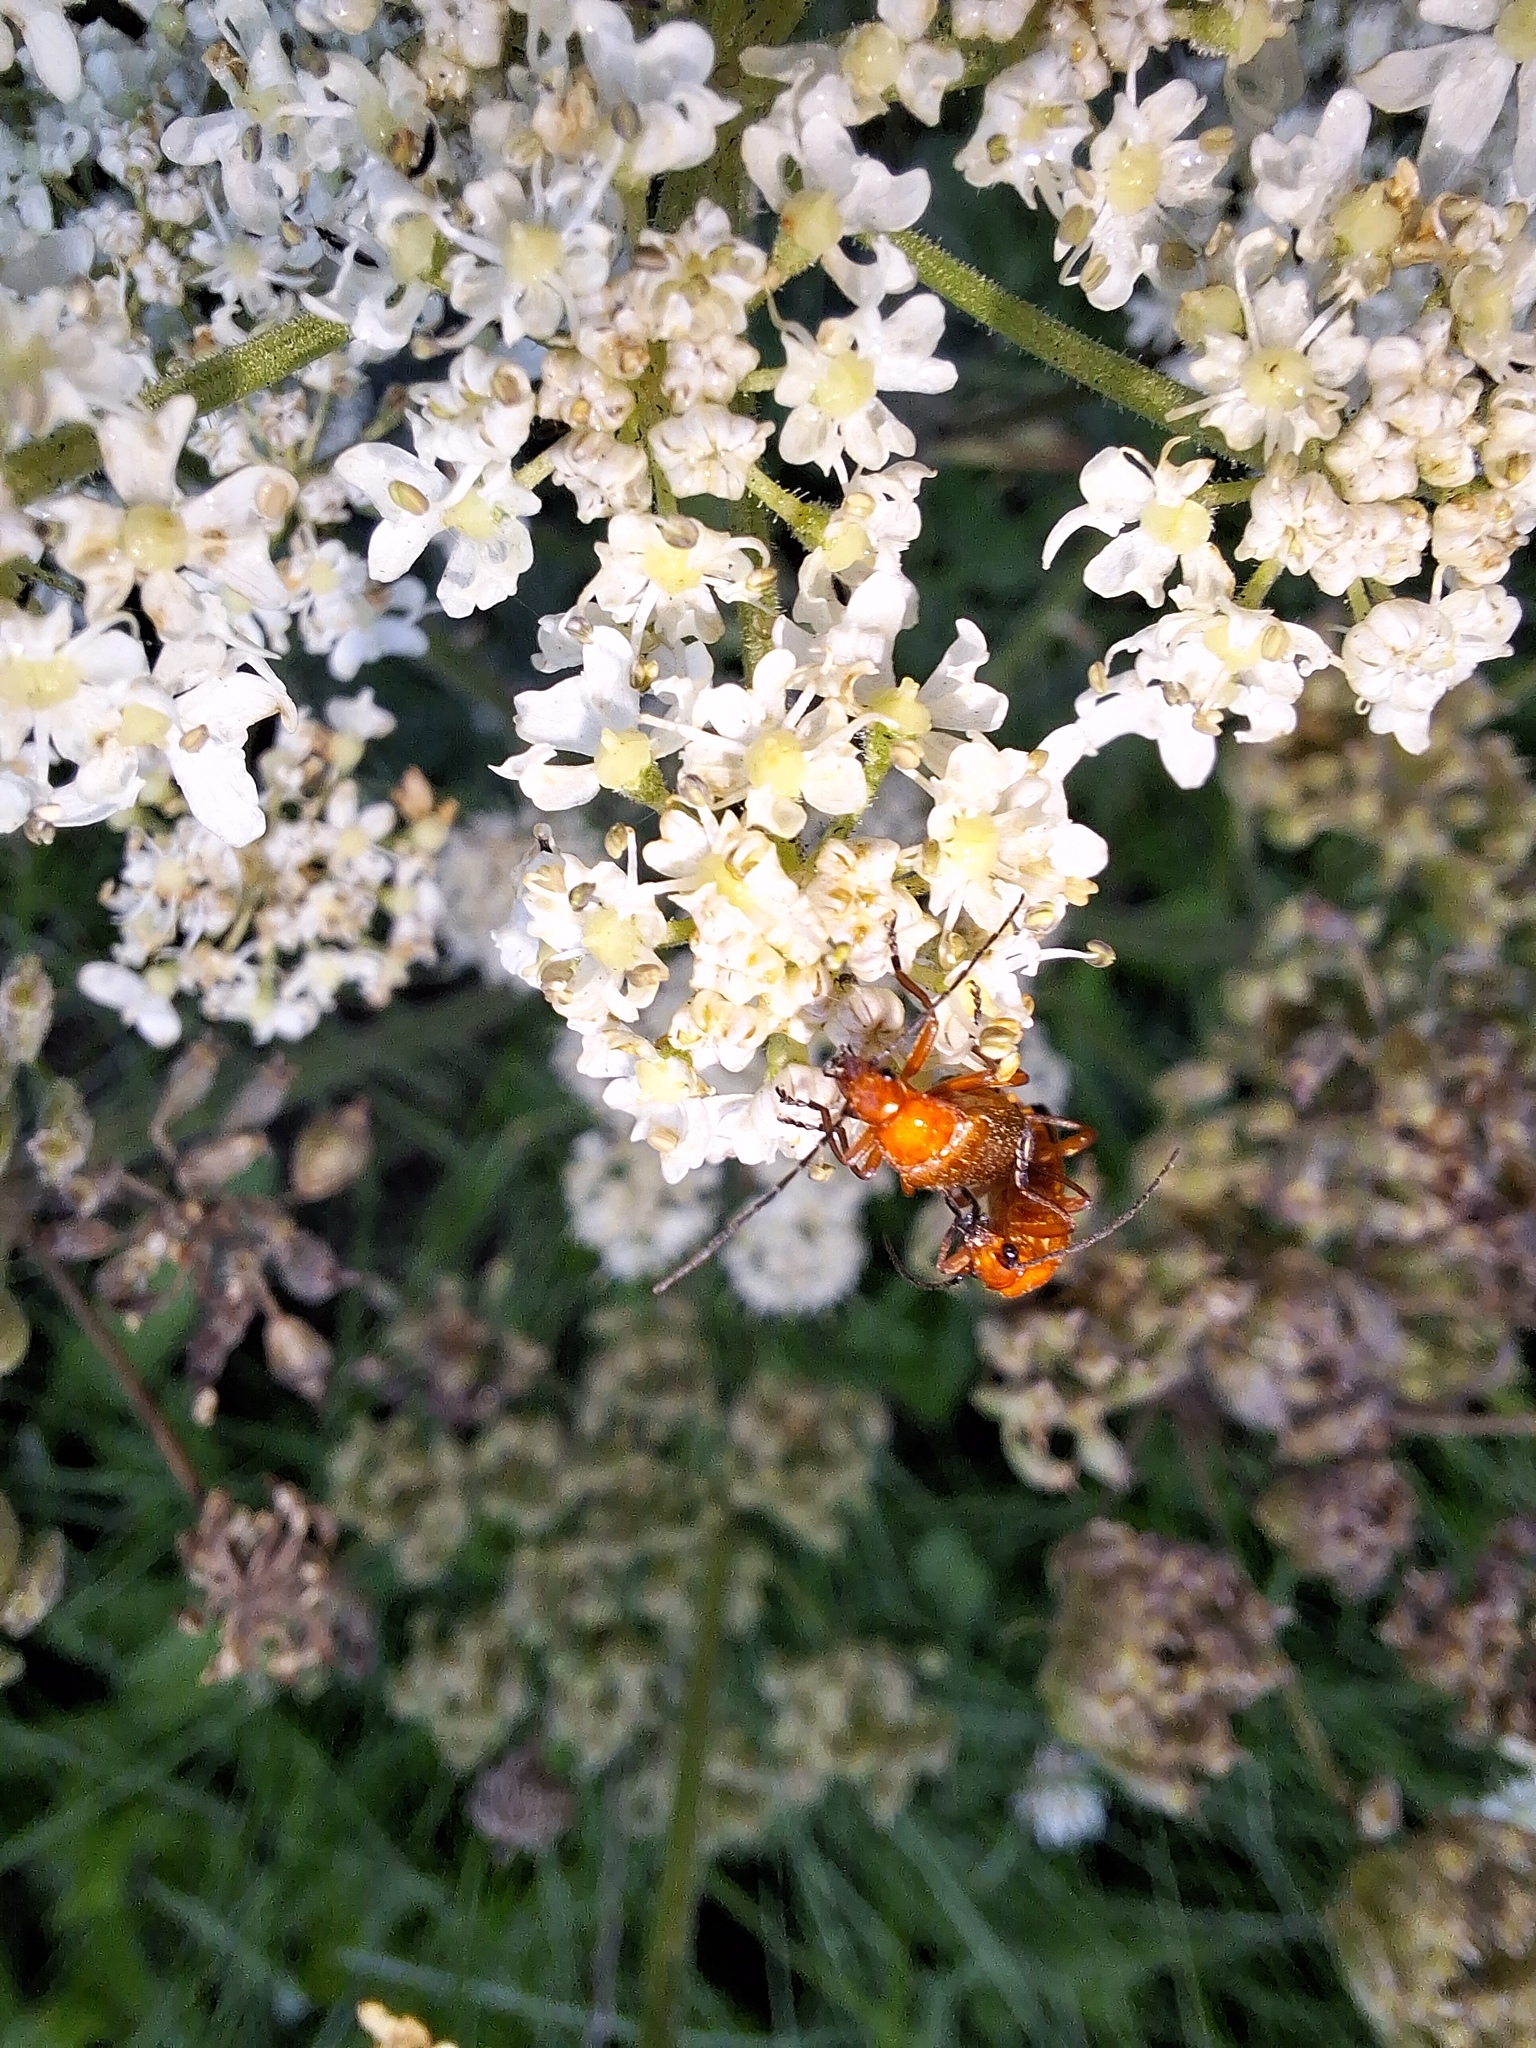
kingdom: Animalia
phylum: Arthropoda
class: Insecta
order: Coleoptera
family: Cantharidae
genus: Rhagonycha
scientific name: Rhagonycha fulva
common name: Common red soldier beetle
